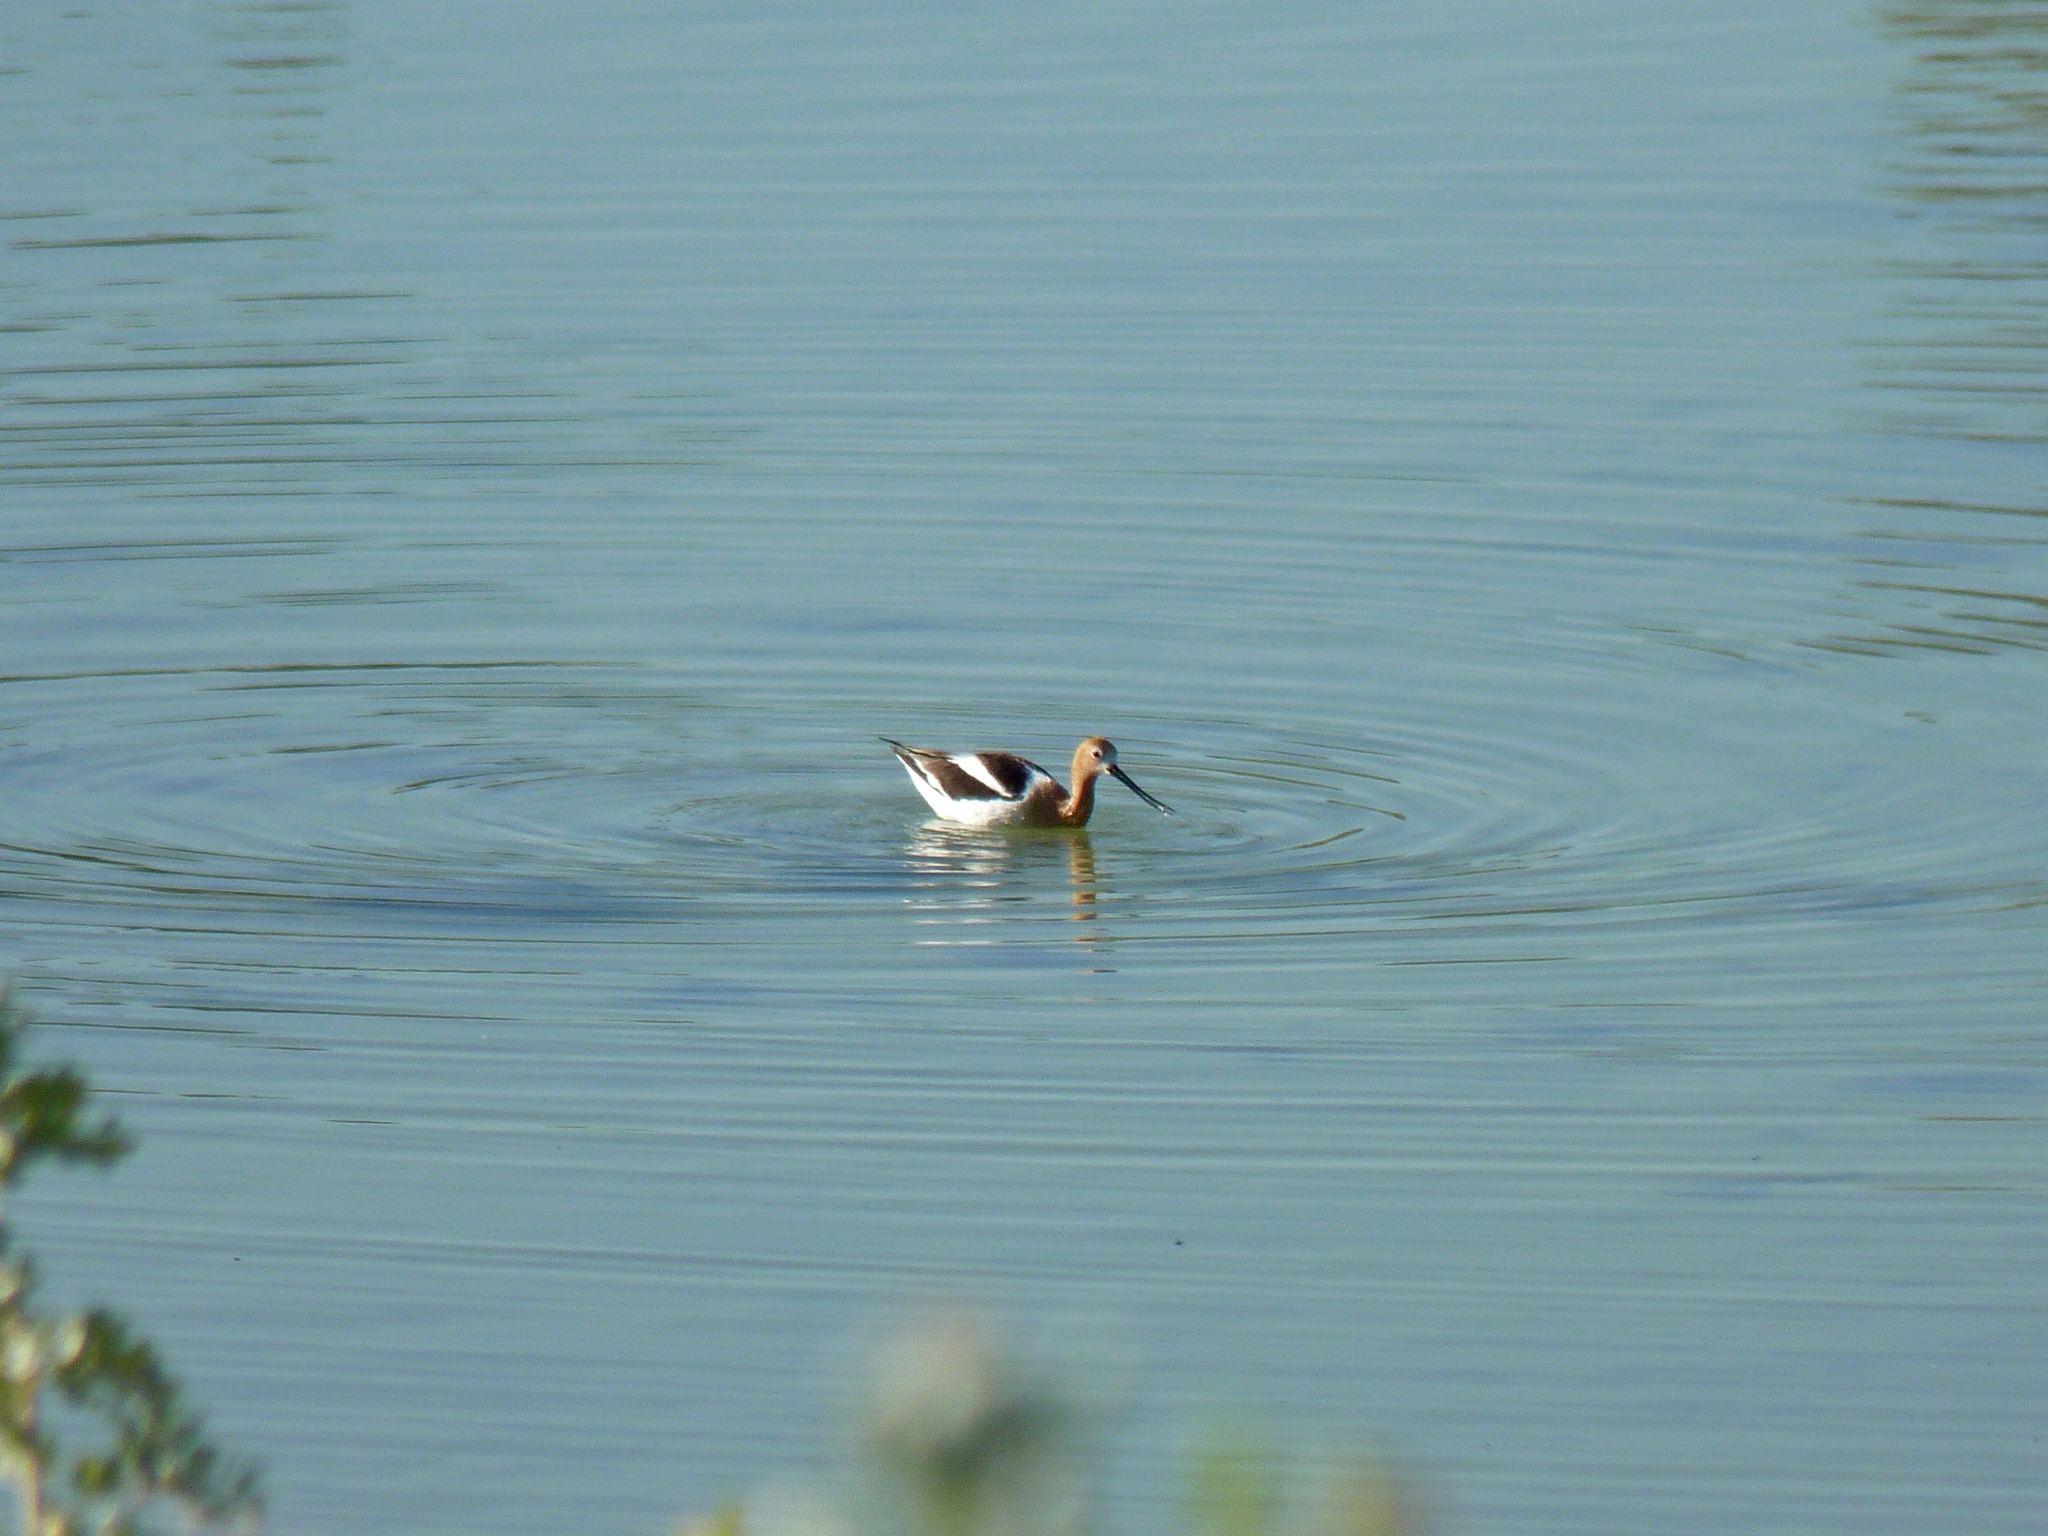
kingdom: Animalia
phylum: Chordata
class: Aves
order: Charadriiformes
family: Recurvirostridae
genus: Recurvirostra
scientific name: Recurvirostra americana
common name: American avocet
